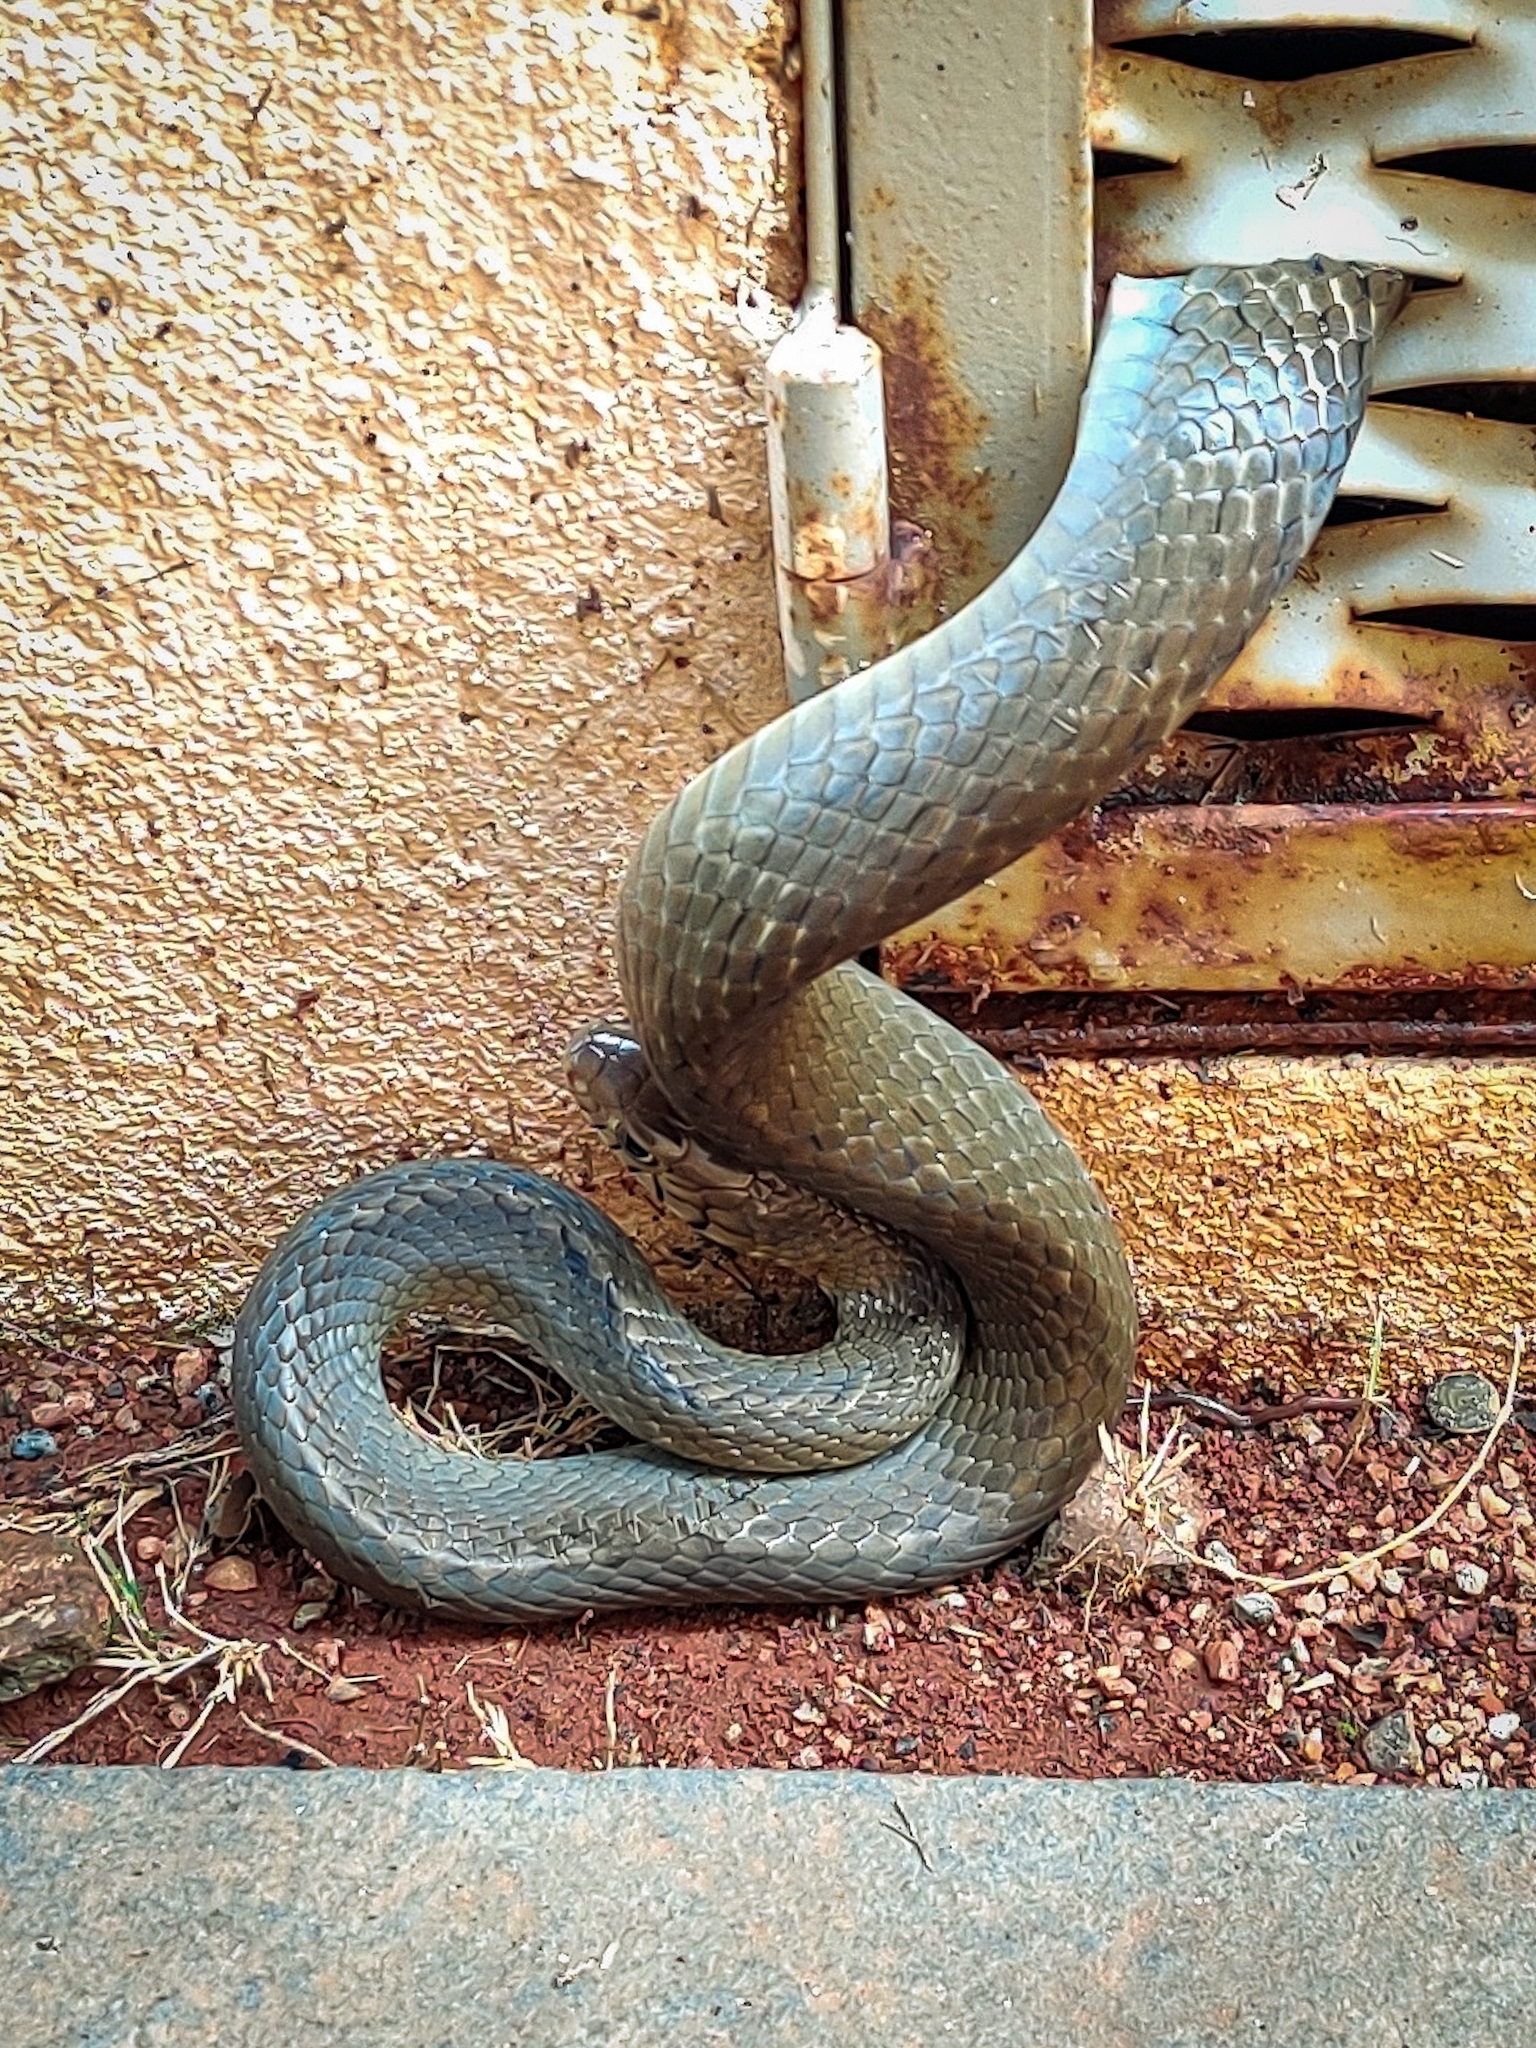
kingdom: Animalia
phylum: Chordata
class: Squamata
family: Colubridae
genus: Ptyas
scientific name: Ptyas mucosa
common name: Oriental ratsnake
